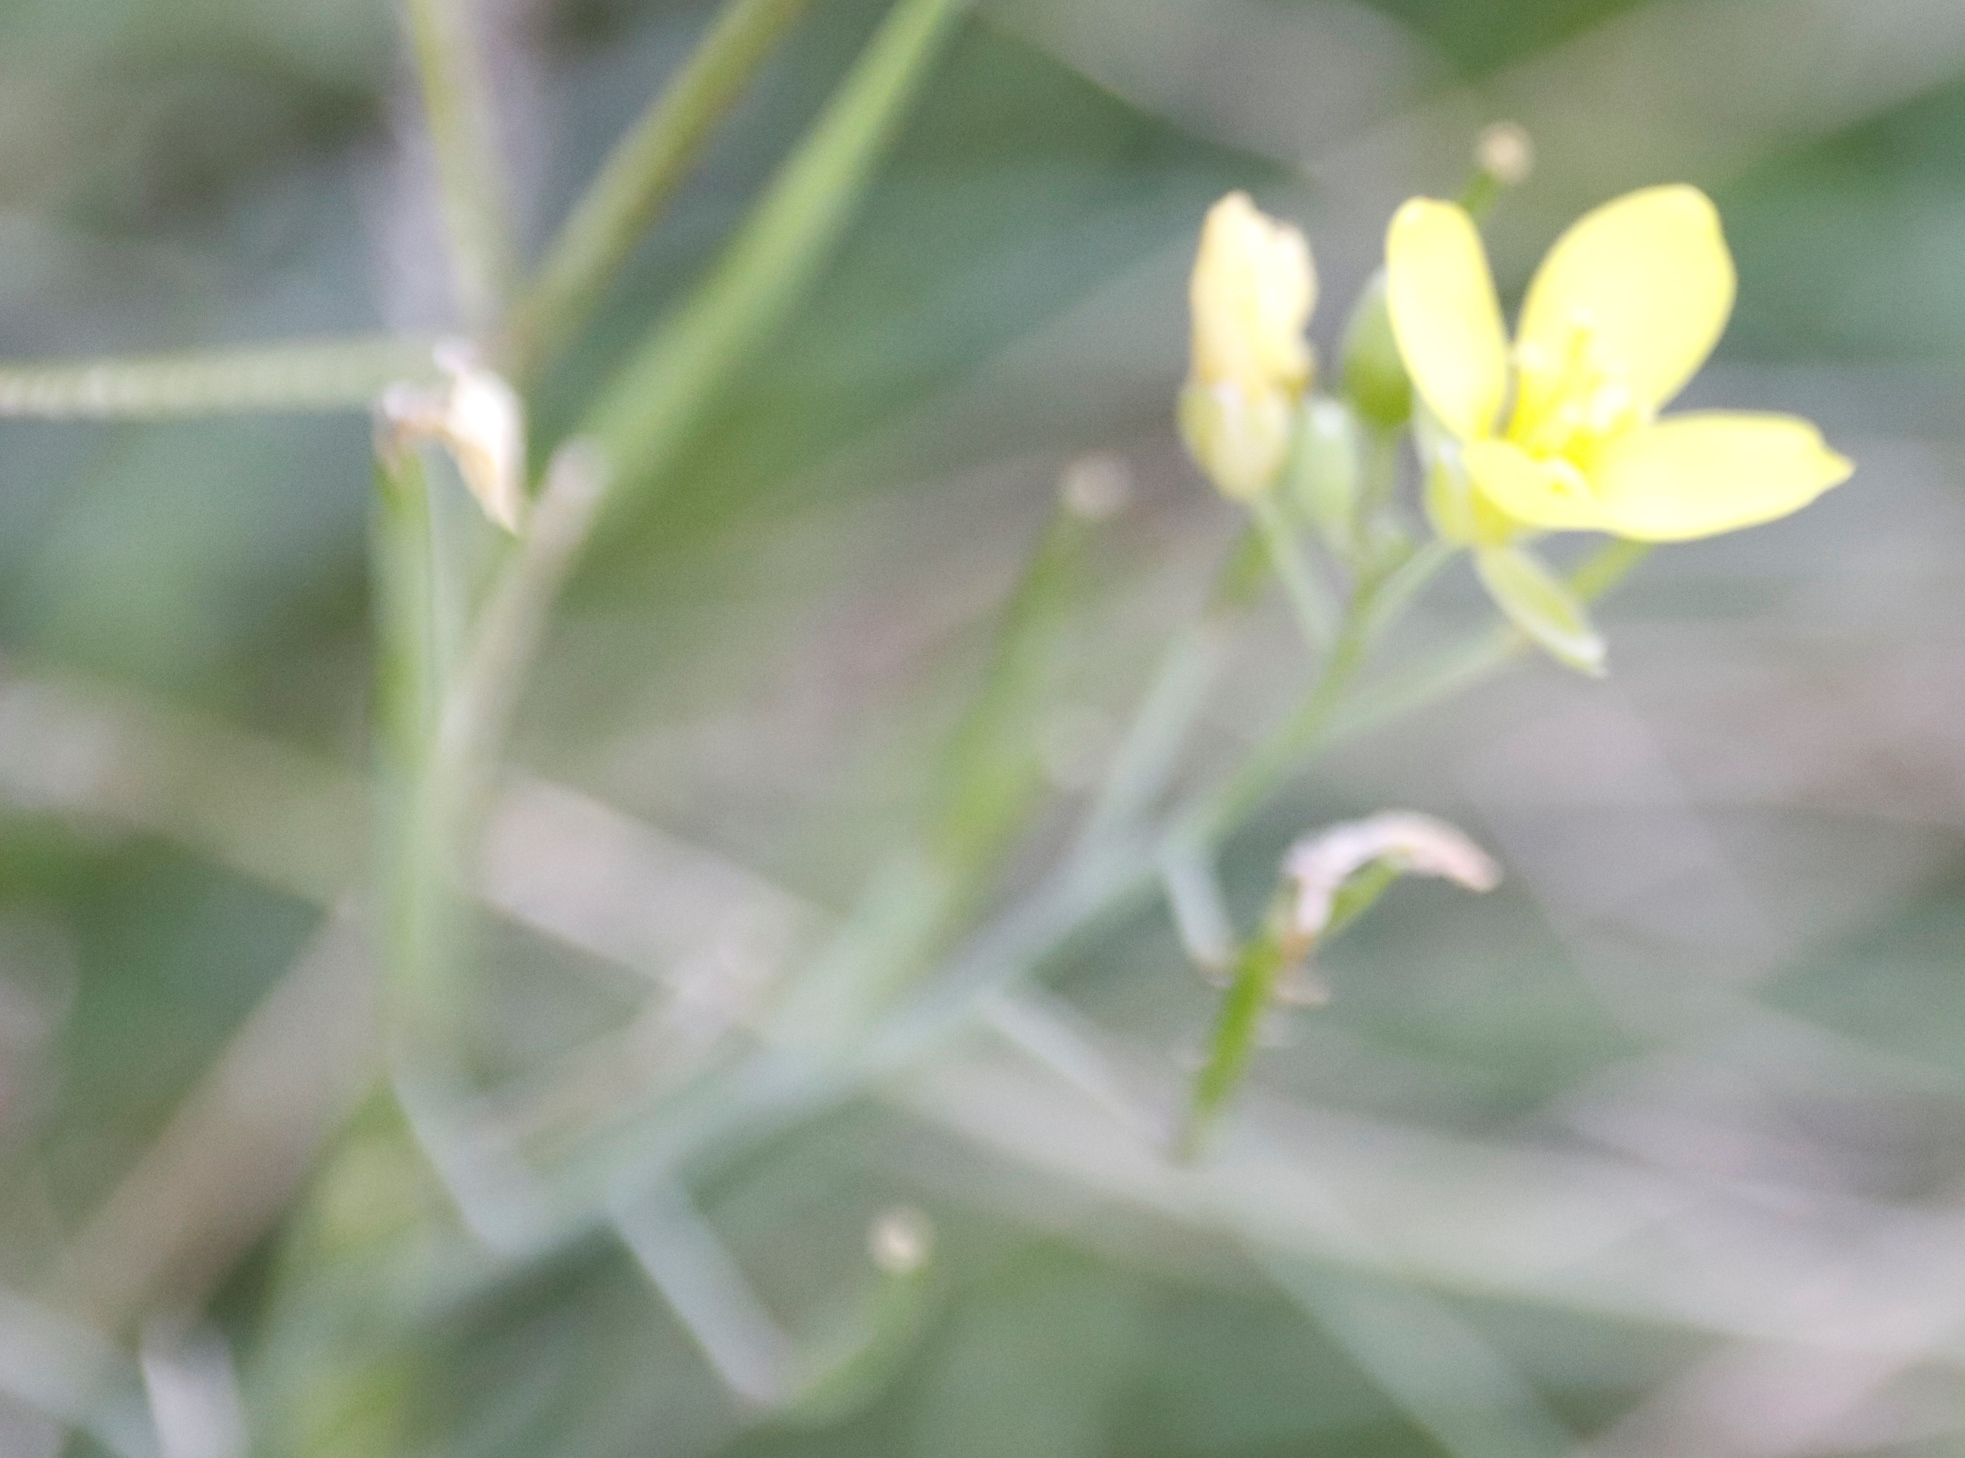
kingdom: Plantae
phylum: Tracheophyta
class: Magnoliopsida
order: Brassicales
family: Brassicaceae
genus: Diplotaxis
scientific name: Diplotaxis tenuifolia
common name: Perennial wall-rocket
